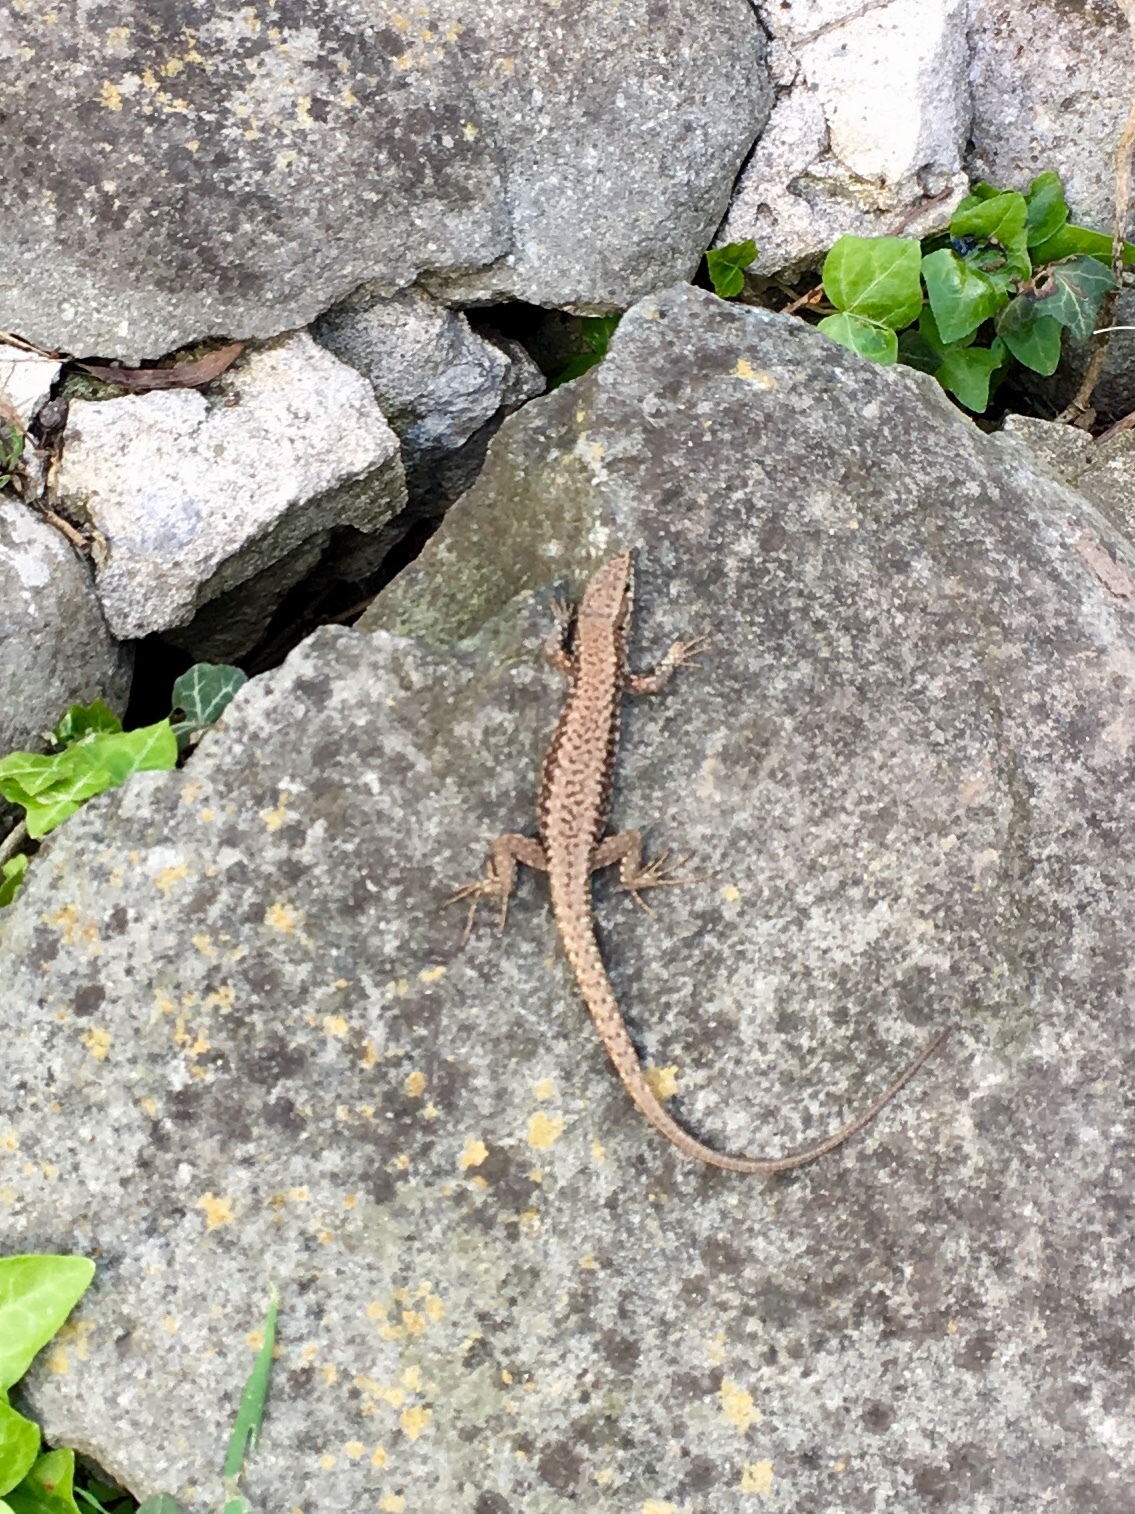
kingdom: Animalia
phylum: Chordata
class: Squamata
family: Lacertidae
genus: Podarcis
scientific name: Podarcis muralis
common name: Common wall lizard
